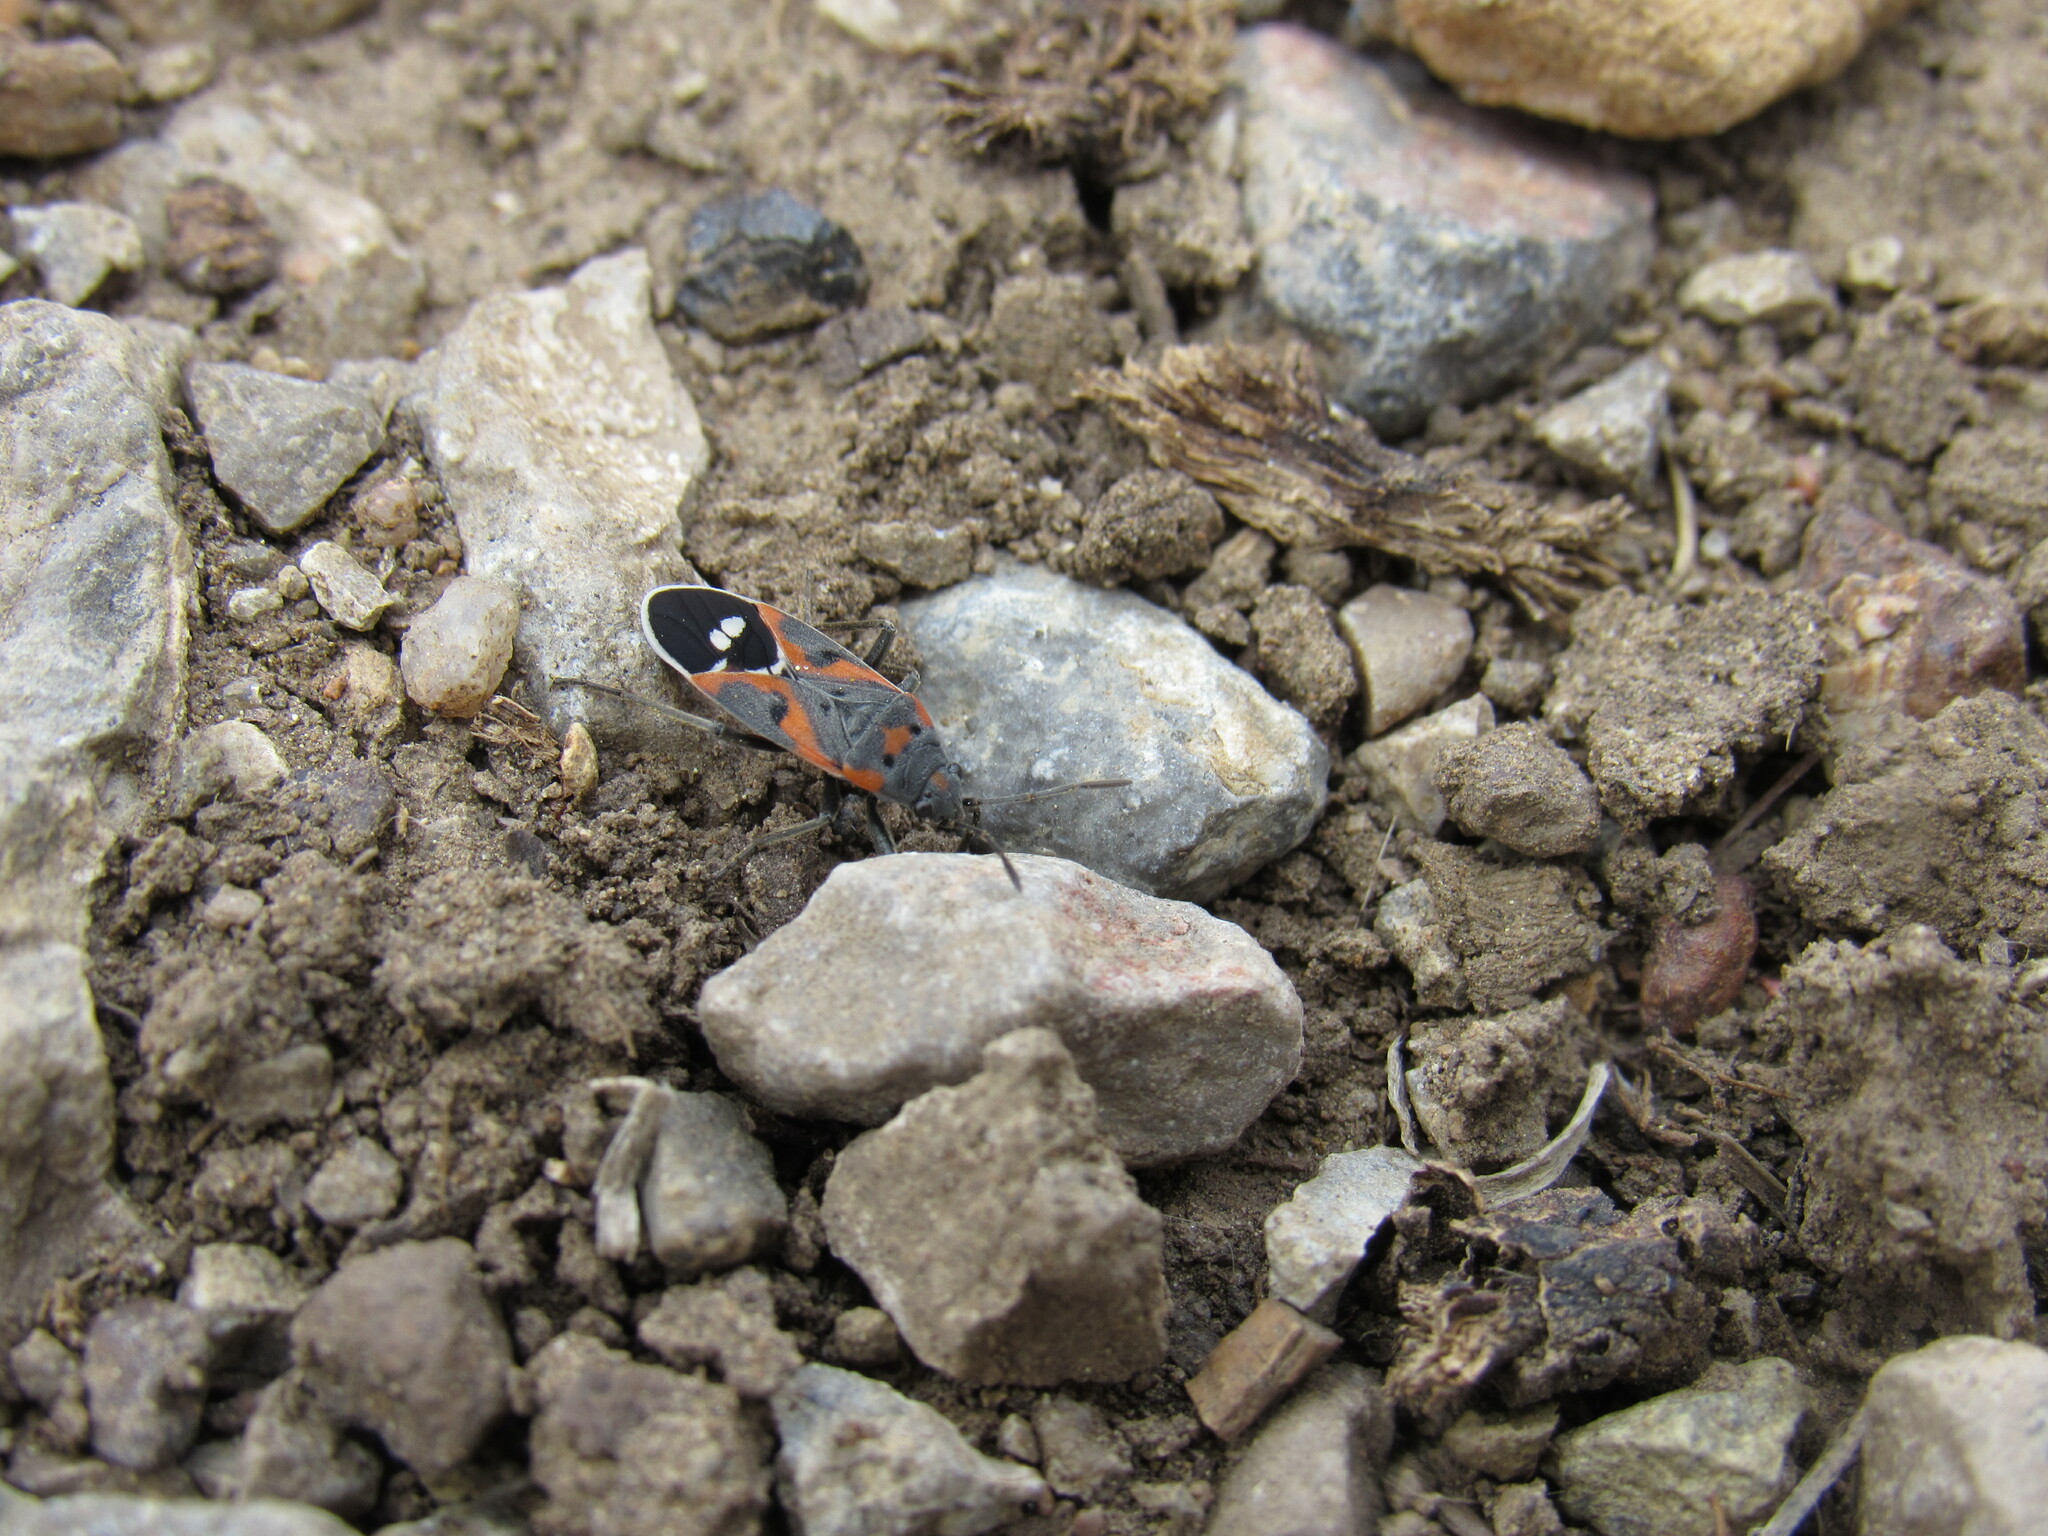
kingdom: Animalia
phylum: Arthropoda
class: Insecta
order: Hemiptera
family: Lygaeidae
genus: Lygaeus
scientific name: Lygaeus kalmii
